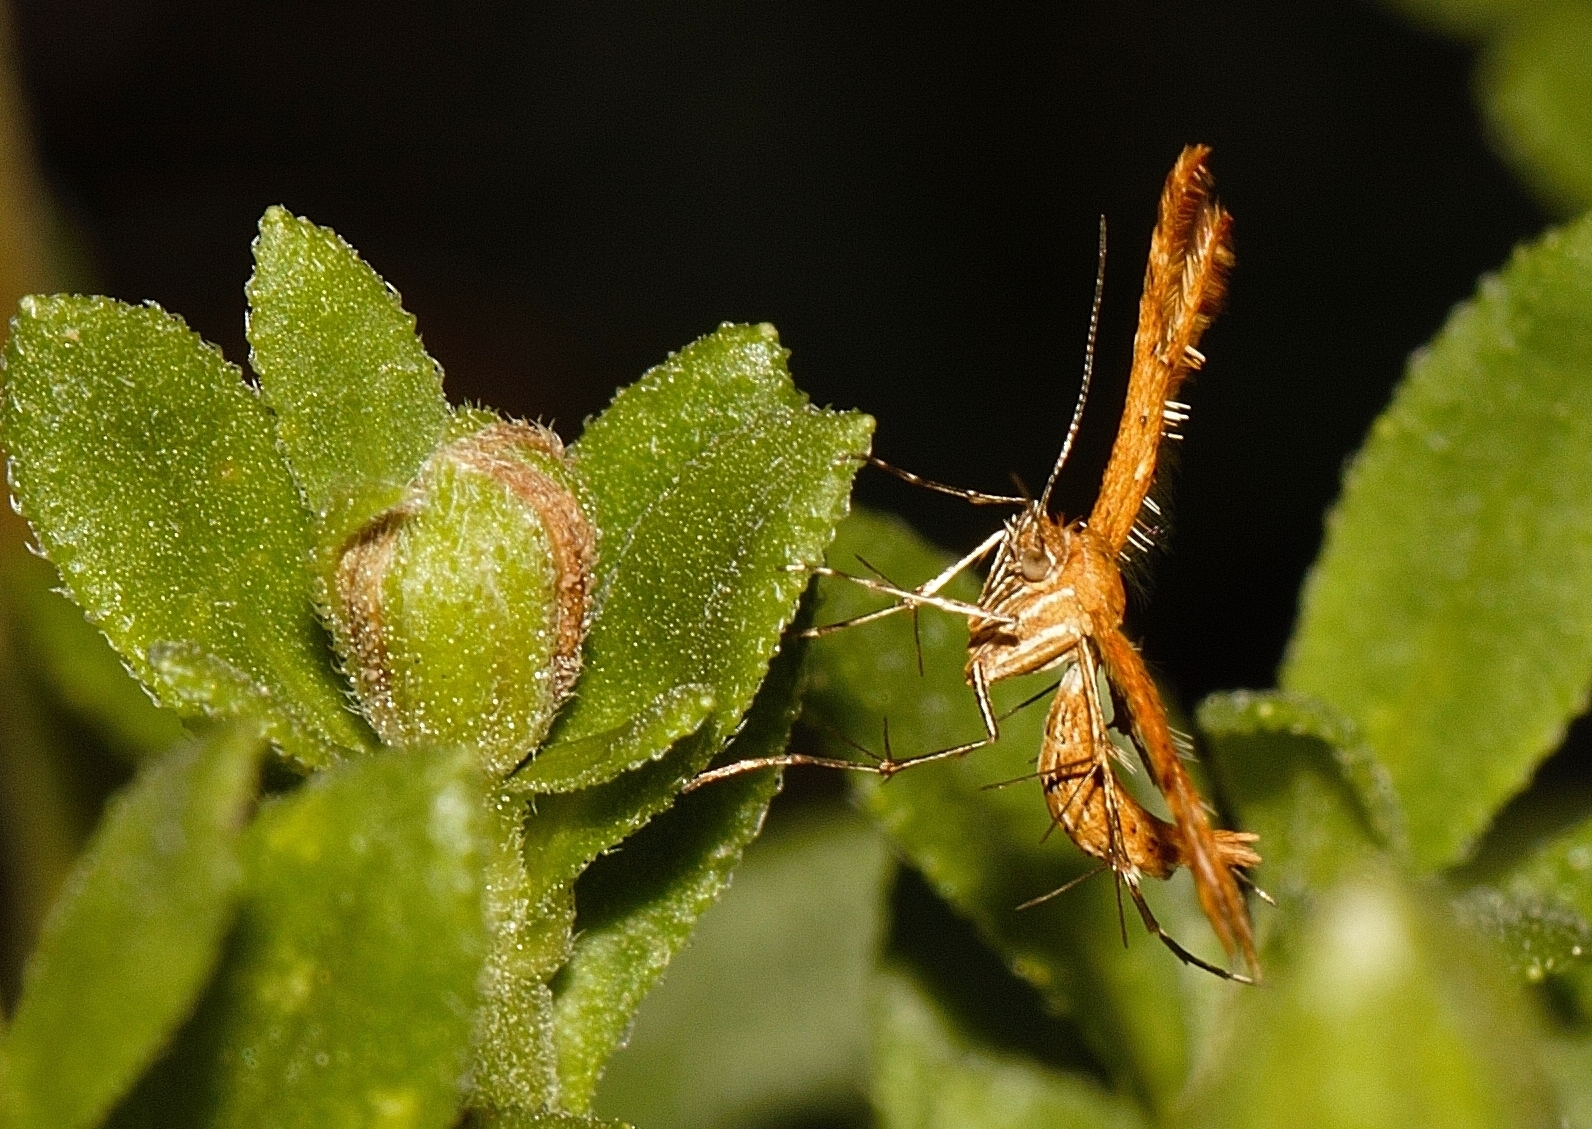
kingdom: Animalia
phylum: Arthropoda
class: Insecta
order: Lepidoptera
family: Pterophoridae
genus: Stenodacma
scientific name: Stenodacma wahlbergi
